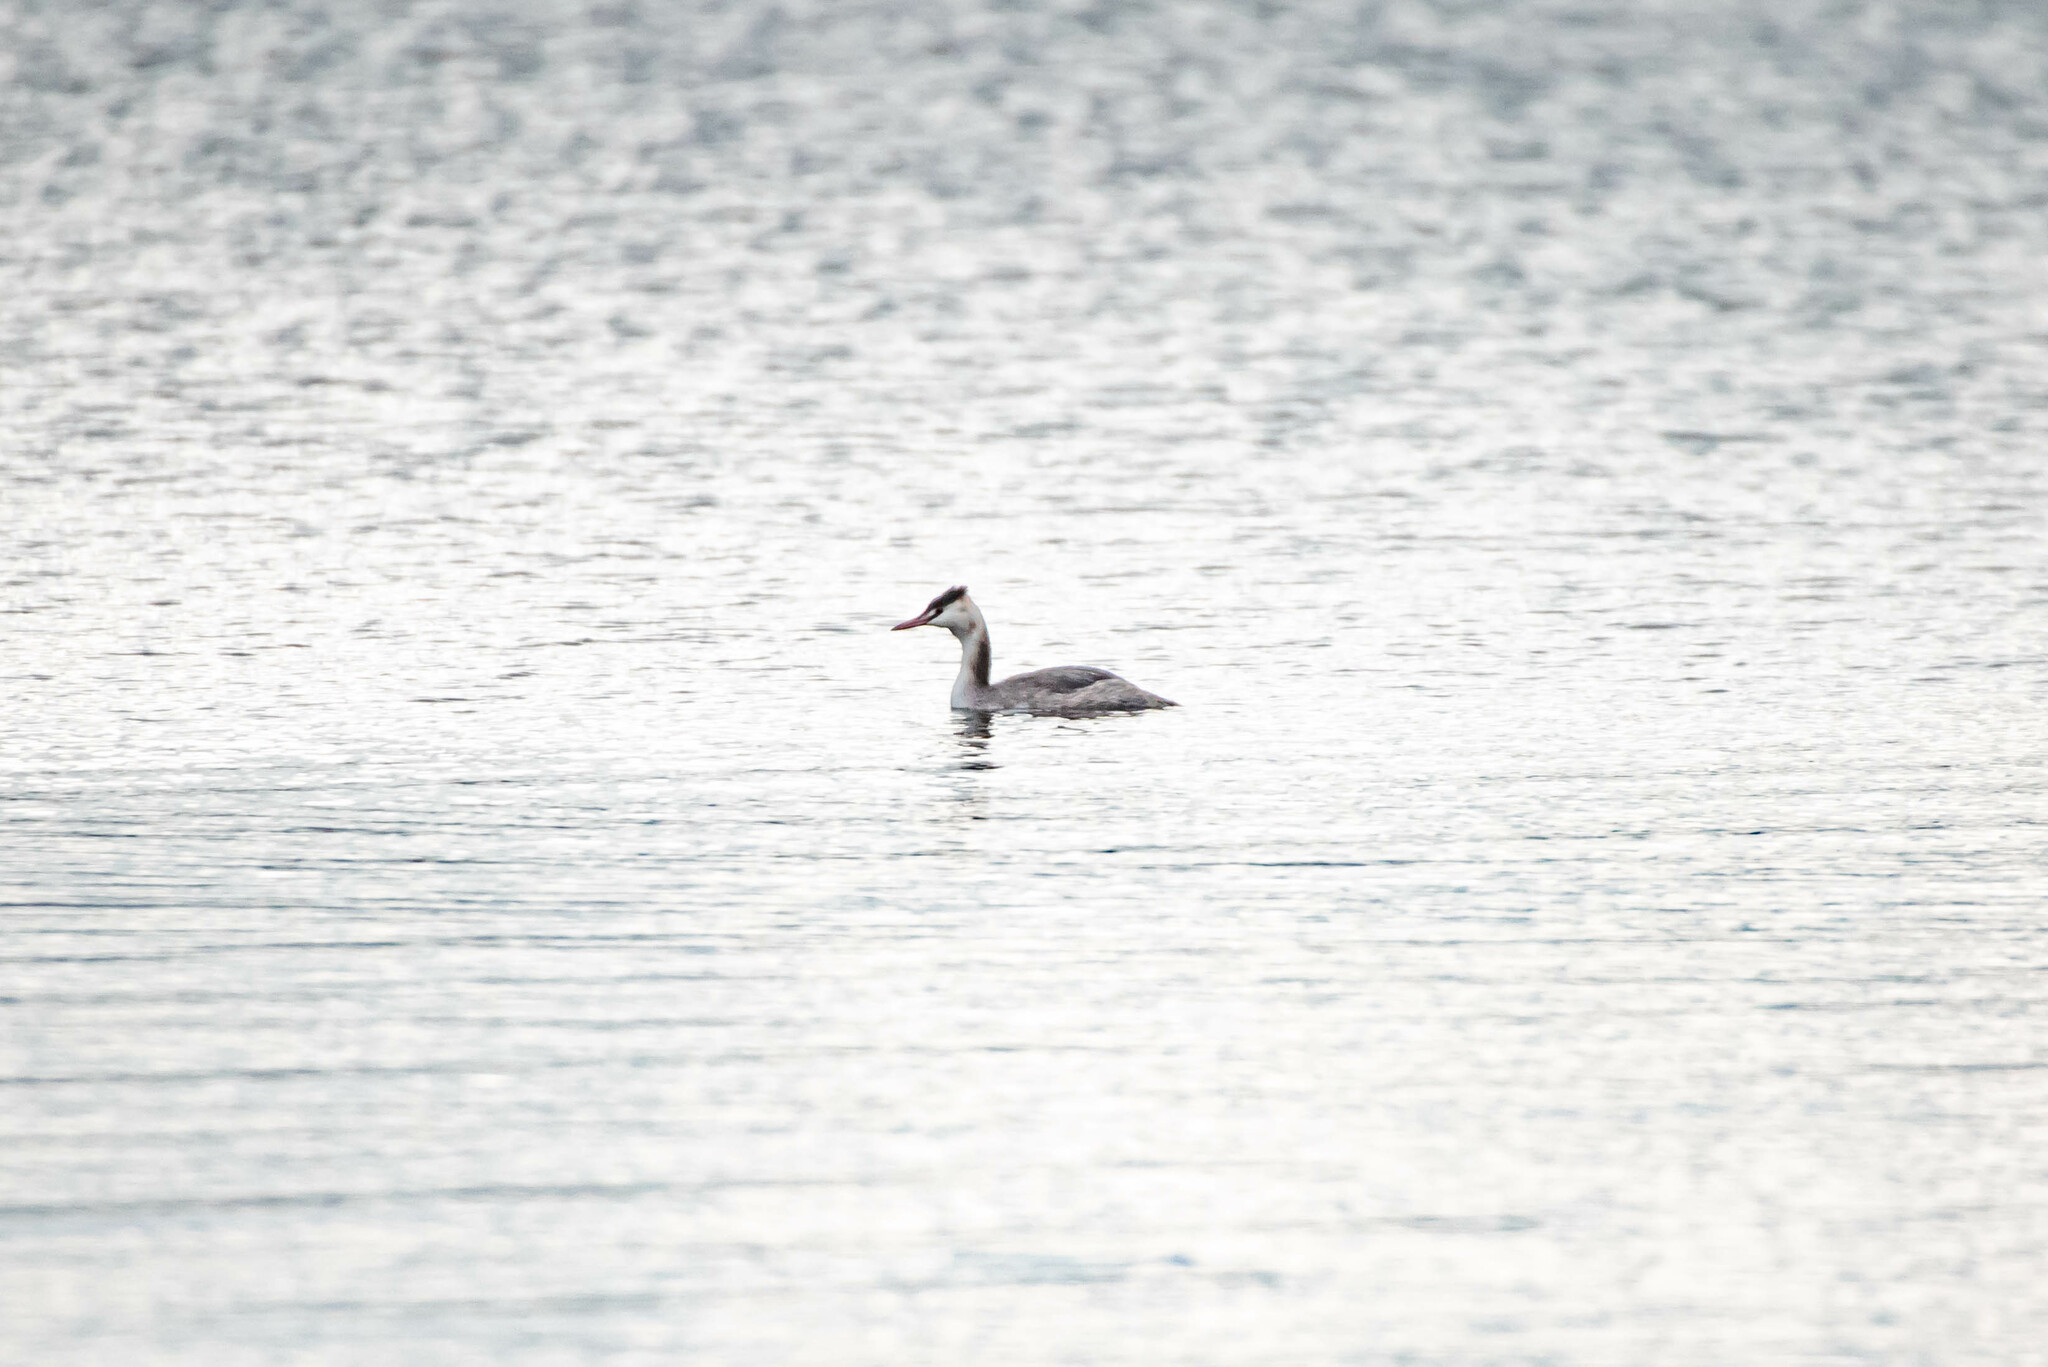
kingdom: Animalia
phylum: Chordata
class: Aves
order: Podicipediformes
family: Podicipedidae
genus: Podiceps
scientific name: Podiceps cristatus
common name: Great crested grebe
